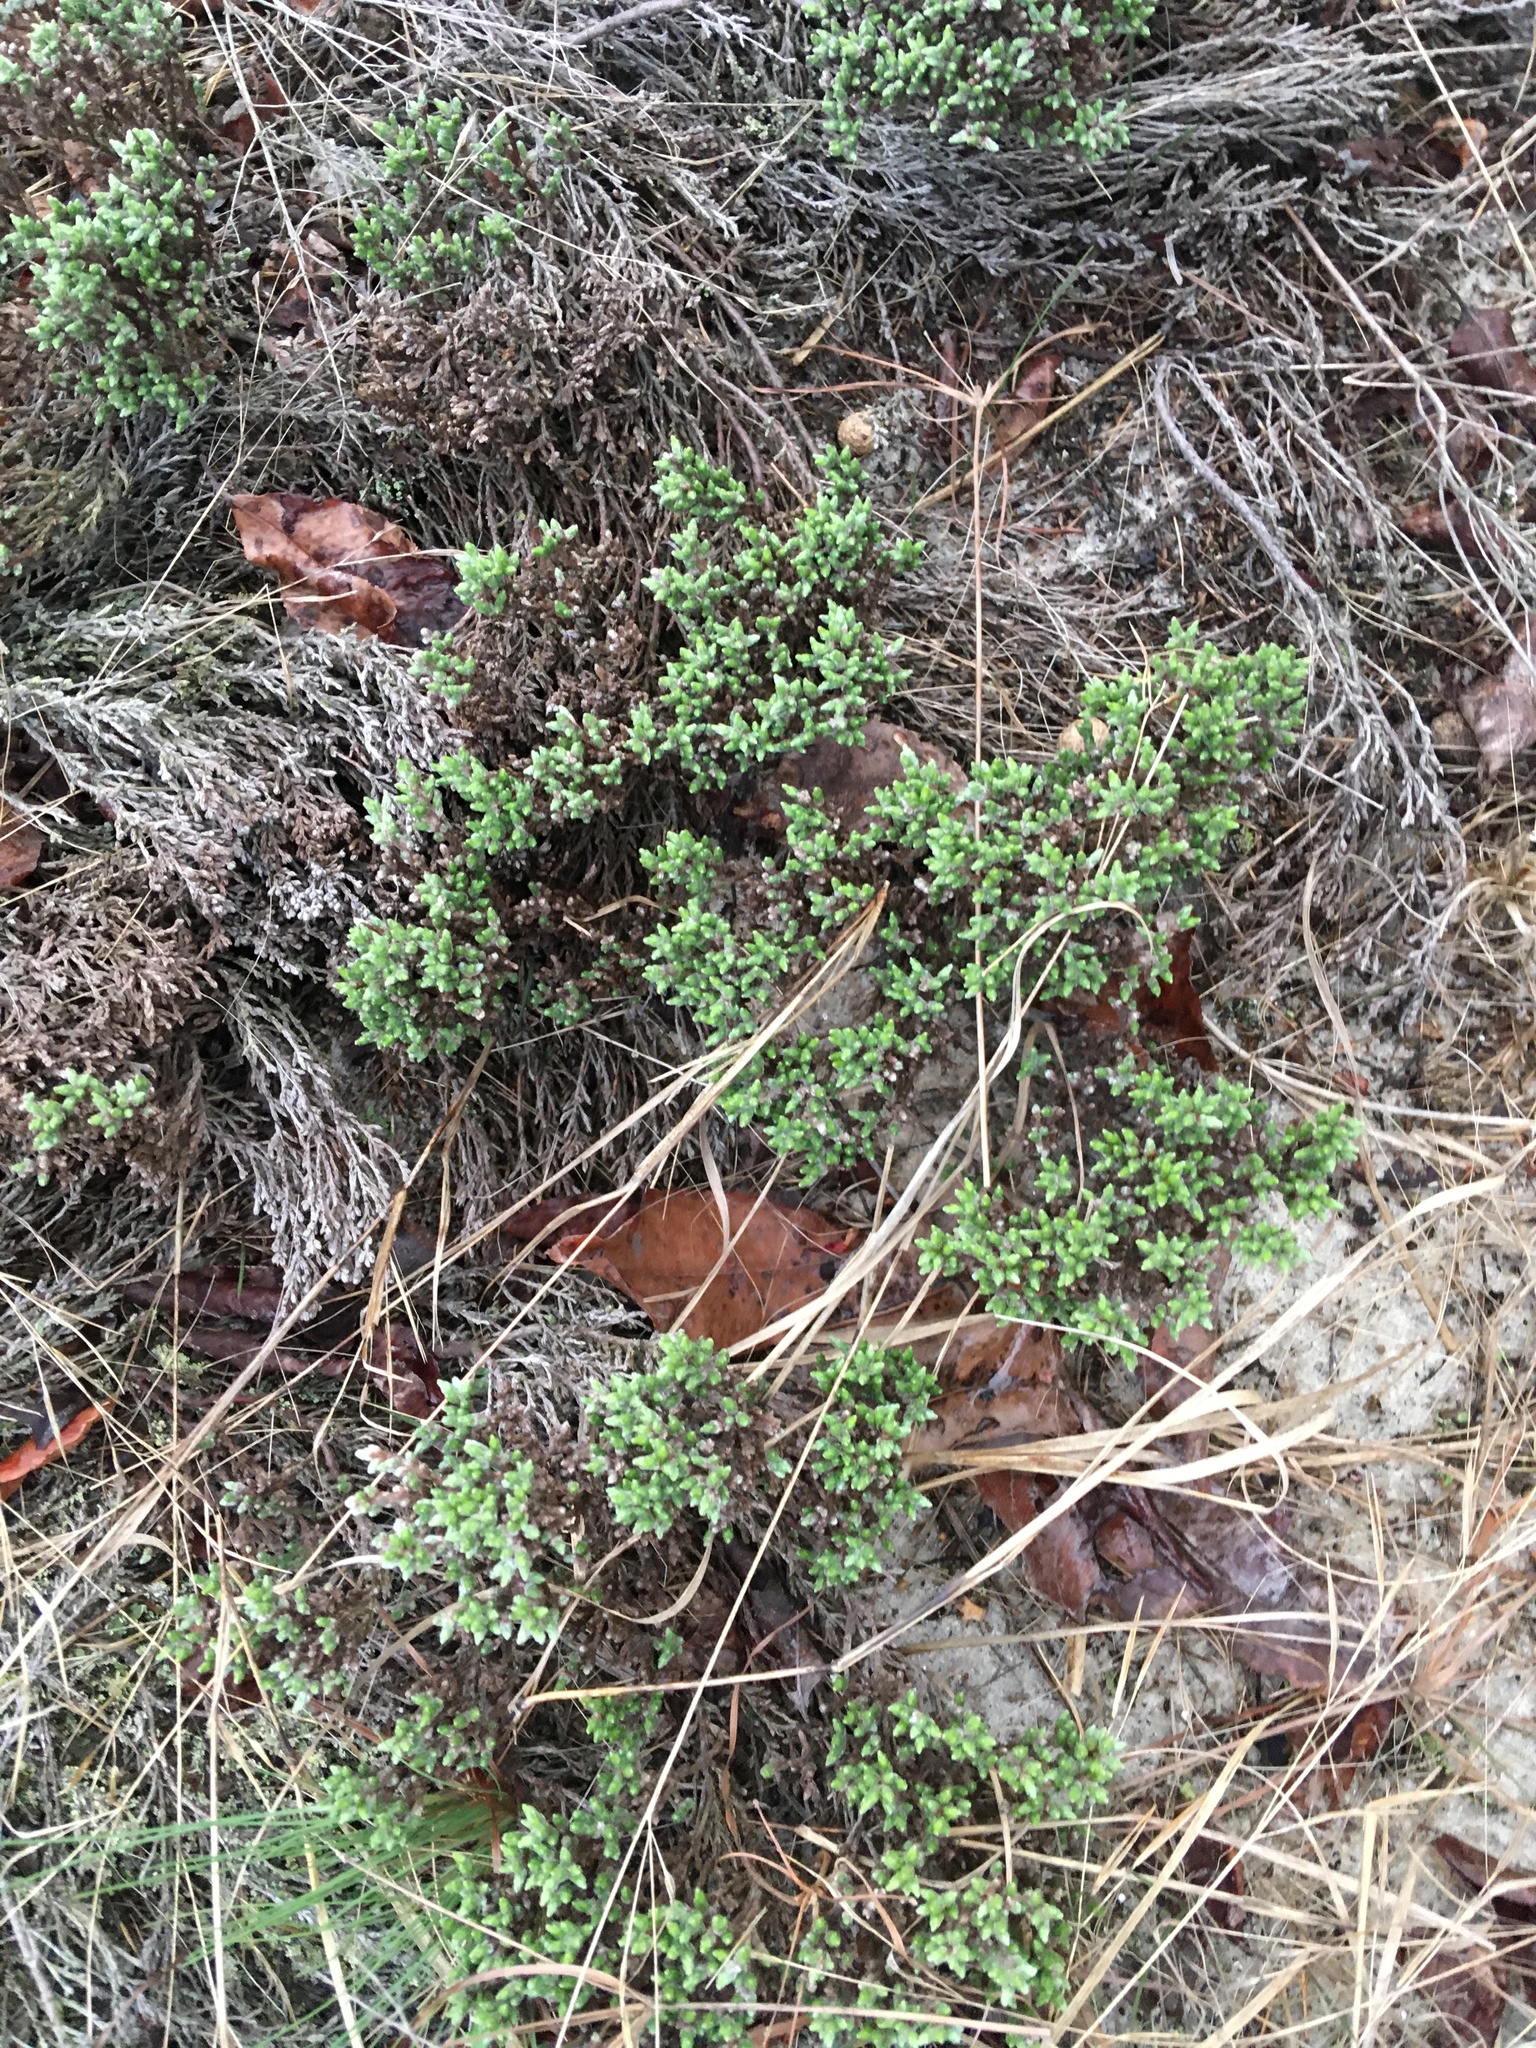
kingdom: Plantae
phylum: Tracheophyta
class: Magnoliopsida
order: Malvales
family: Cistaceae
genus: Hudsonia
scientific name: Hudsonia tomentosa
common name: Beach-heath
